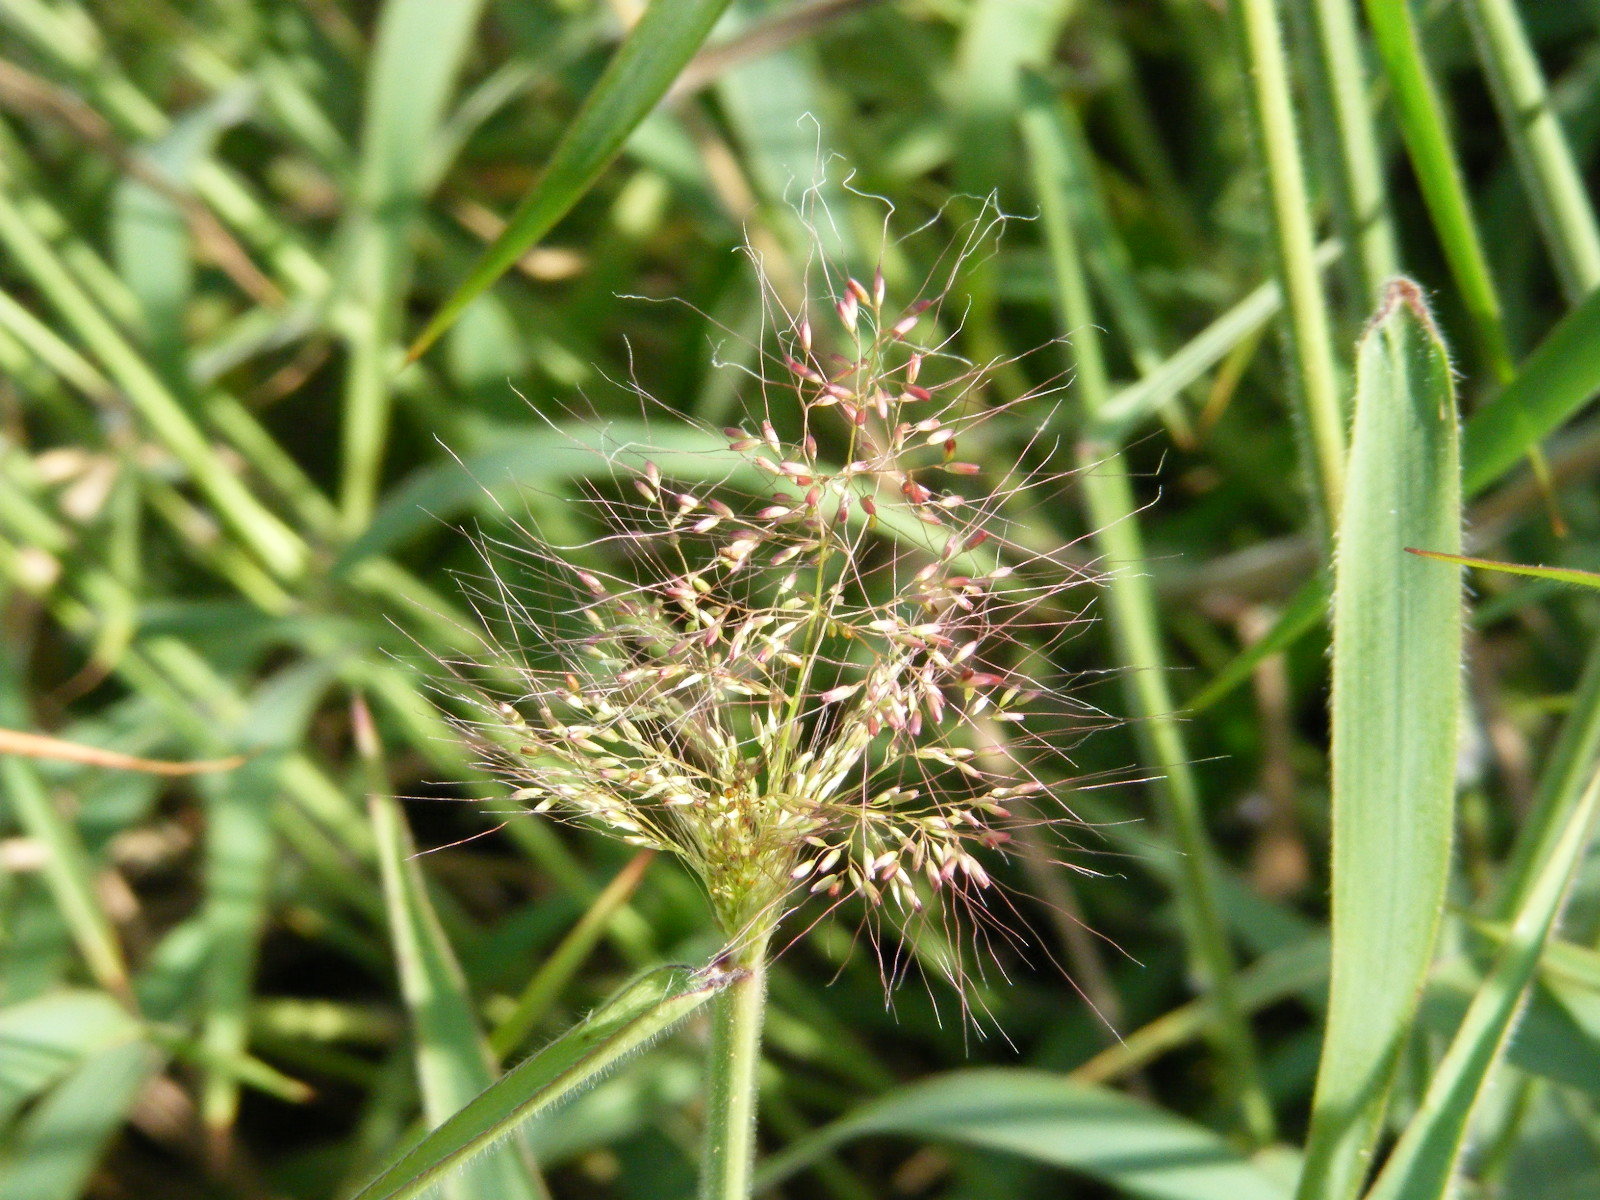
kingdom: Plantae
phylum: Tracheophyta
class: Liliopsida
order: Poales
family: Poaceae
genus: Melinis
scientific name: Melinis minutiflora
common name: Molassesgrass
